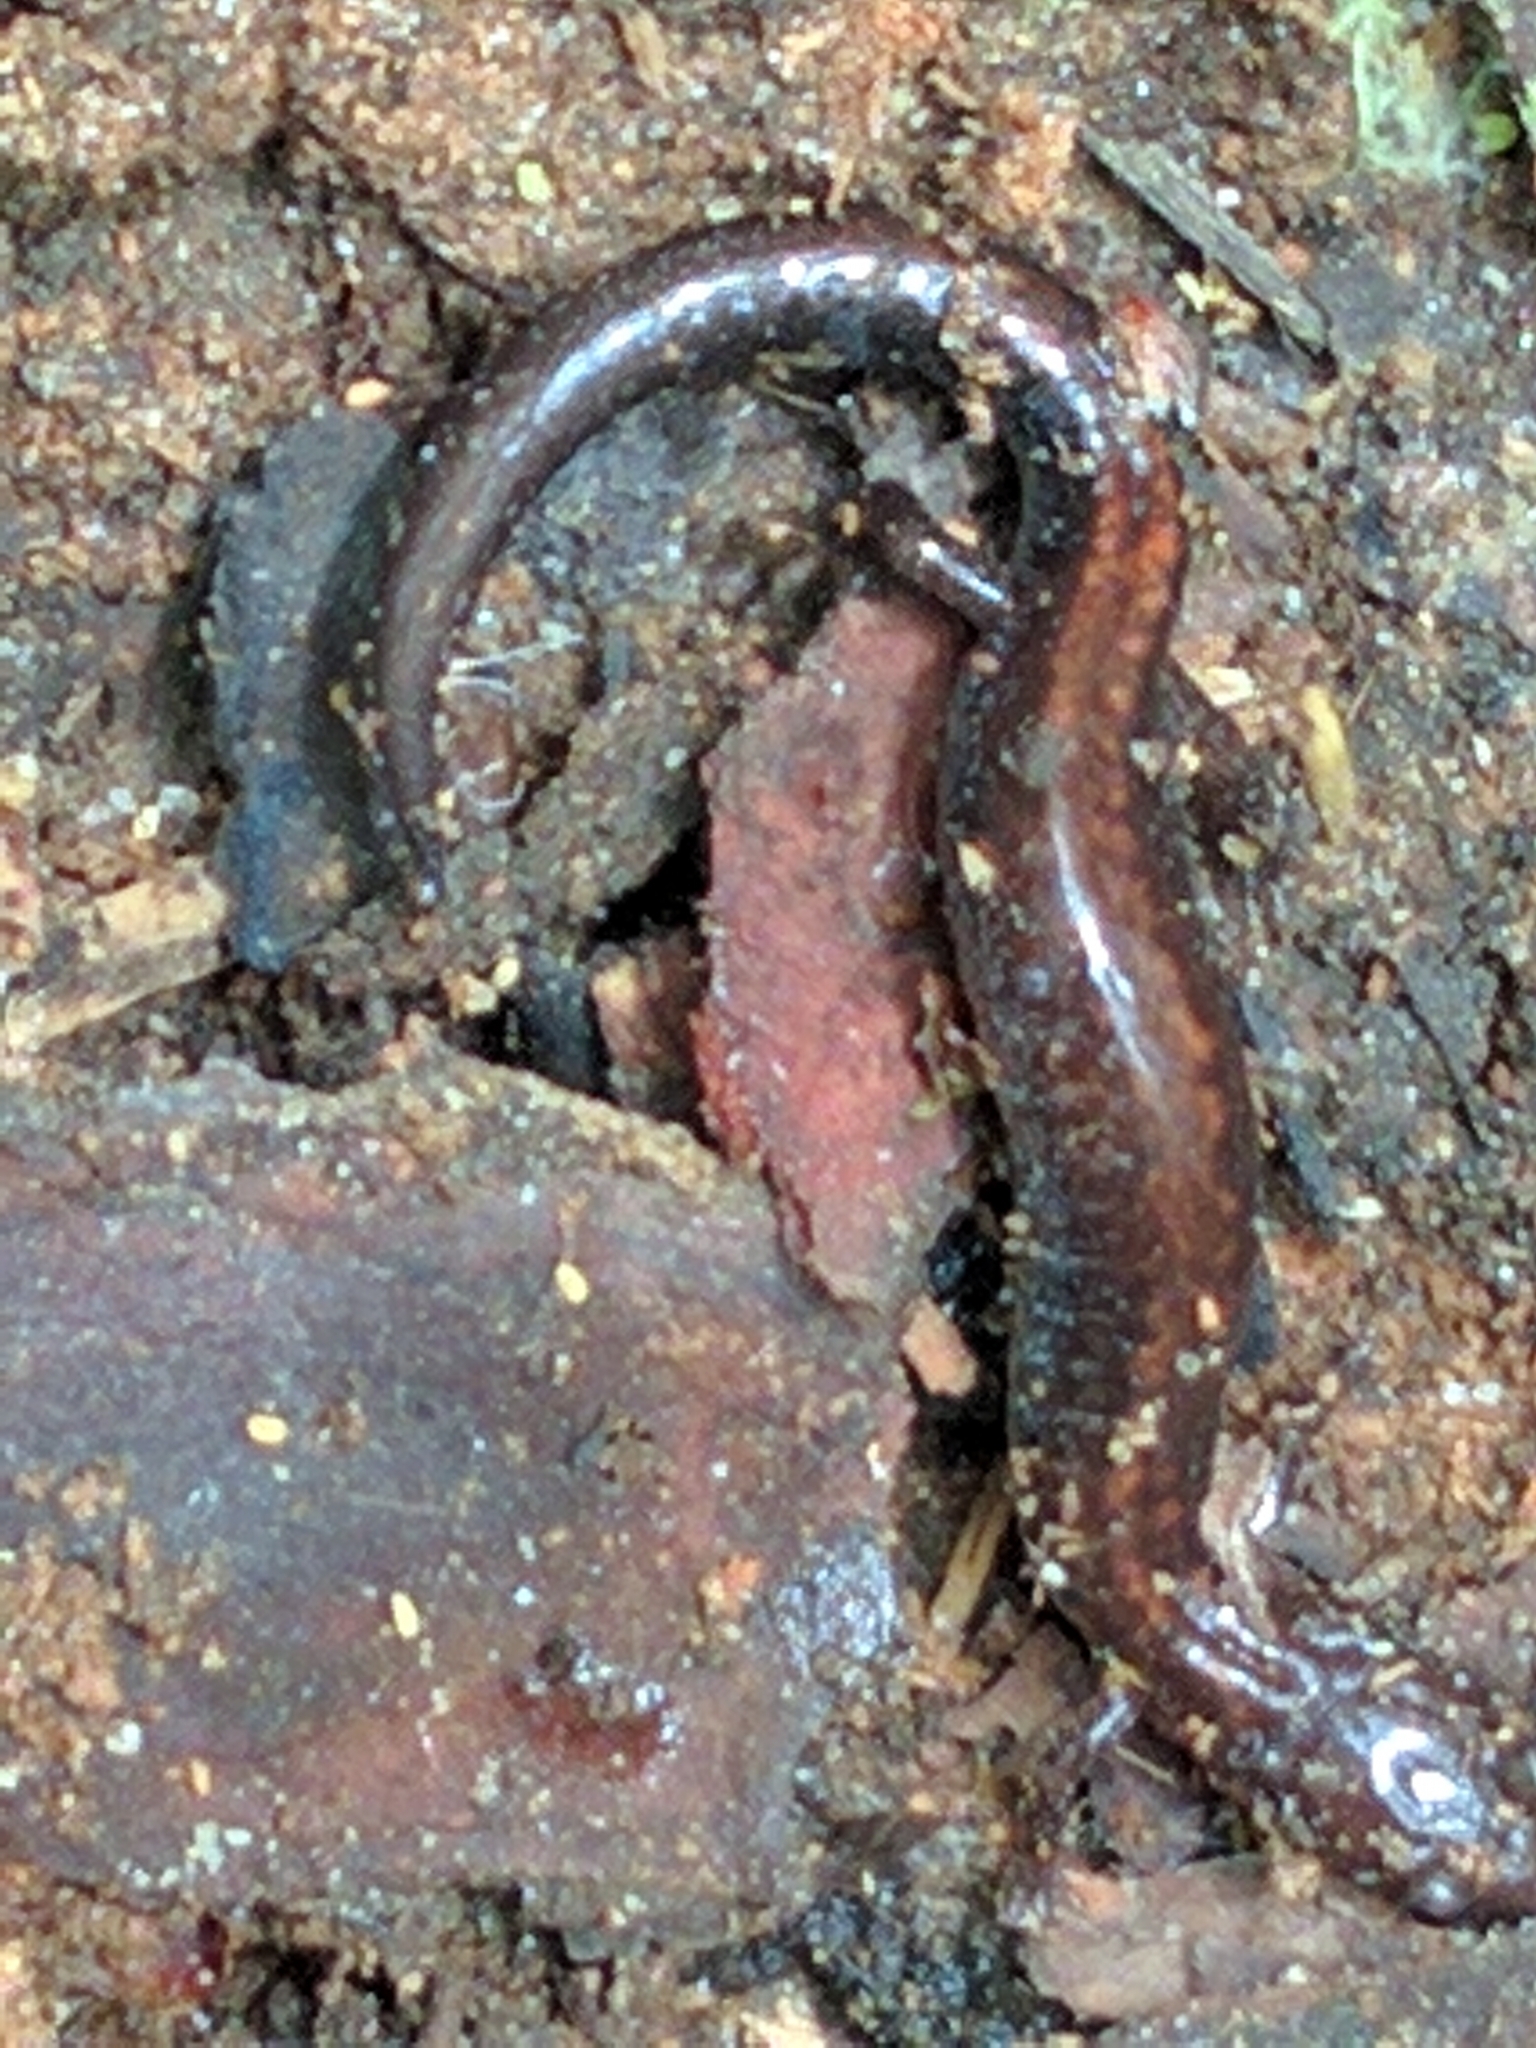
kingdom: Animalia
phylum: Chordata
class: Amphibia
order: Caudata
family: Plethodontidae
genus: Plethodon
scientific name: Plethodon cinereus
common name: Redback salamander
